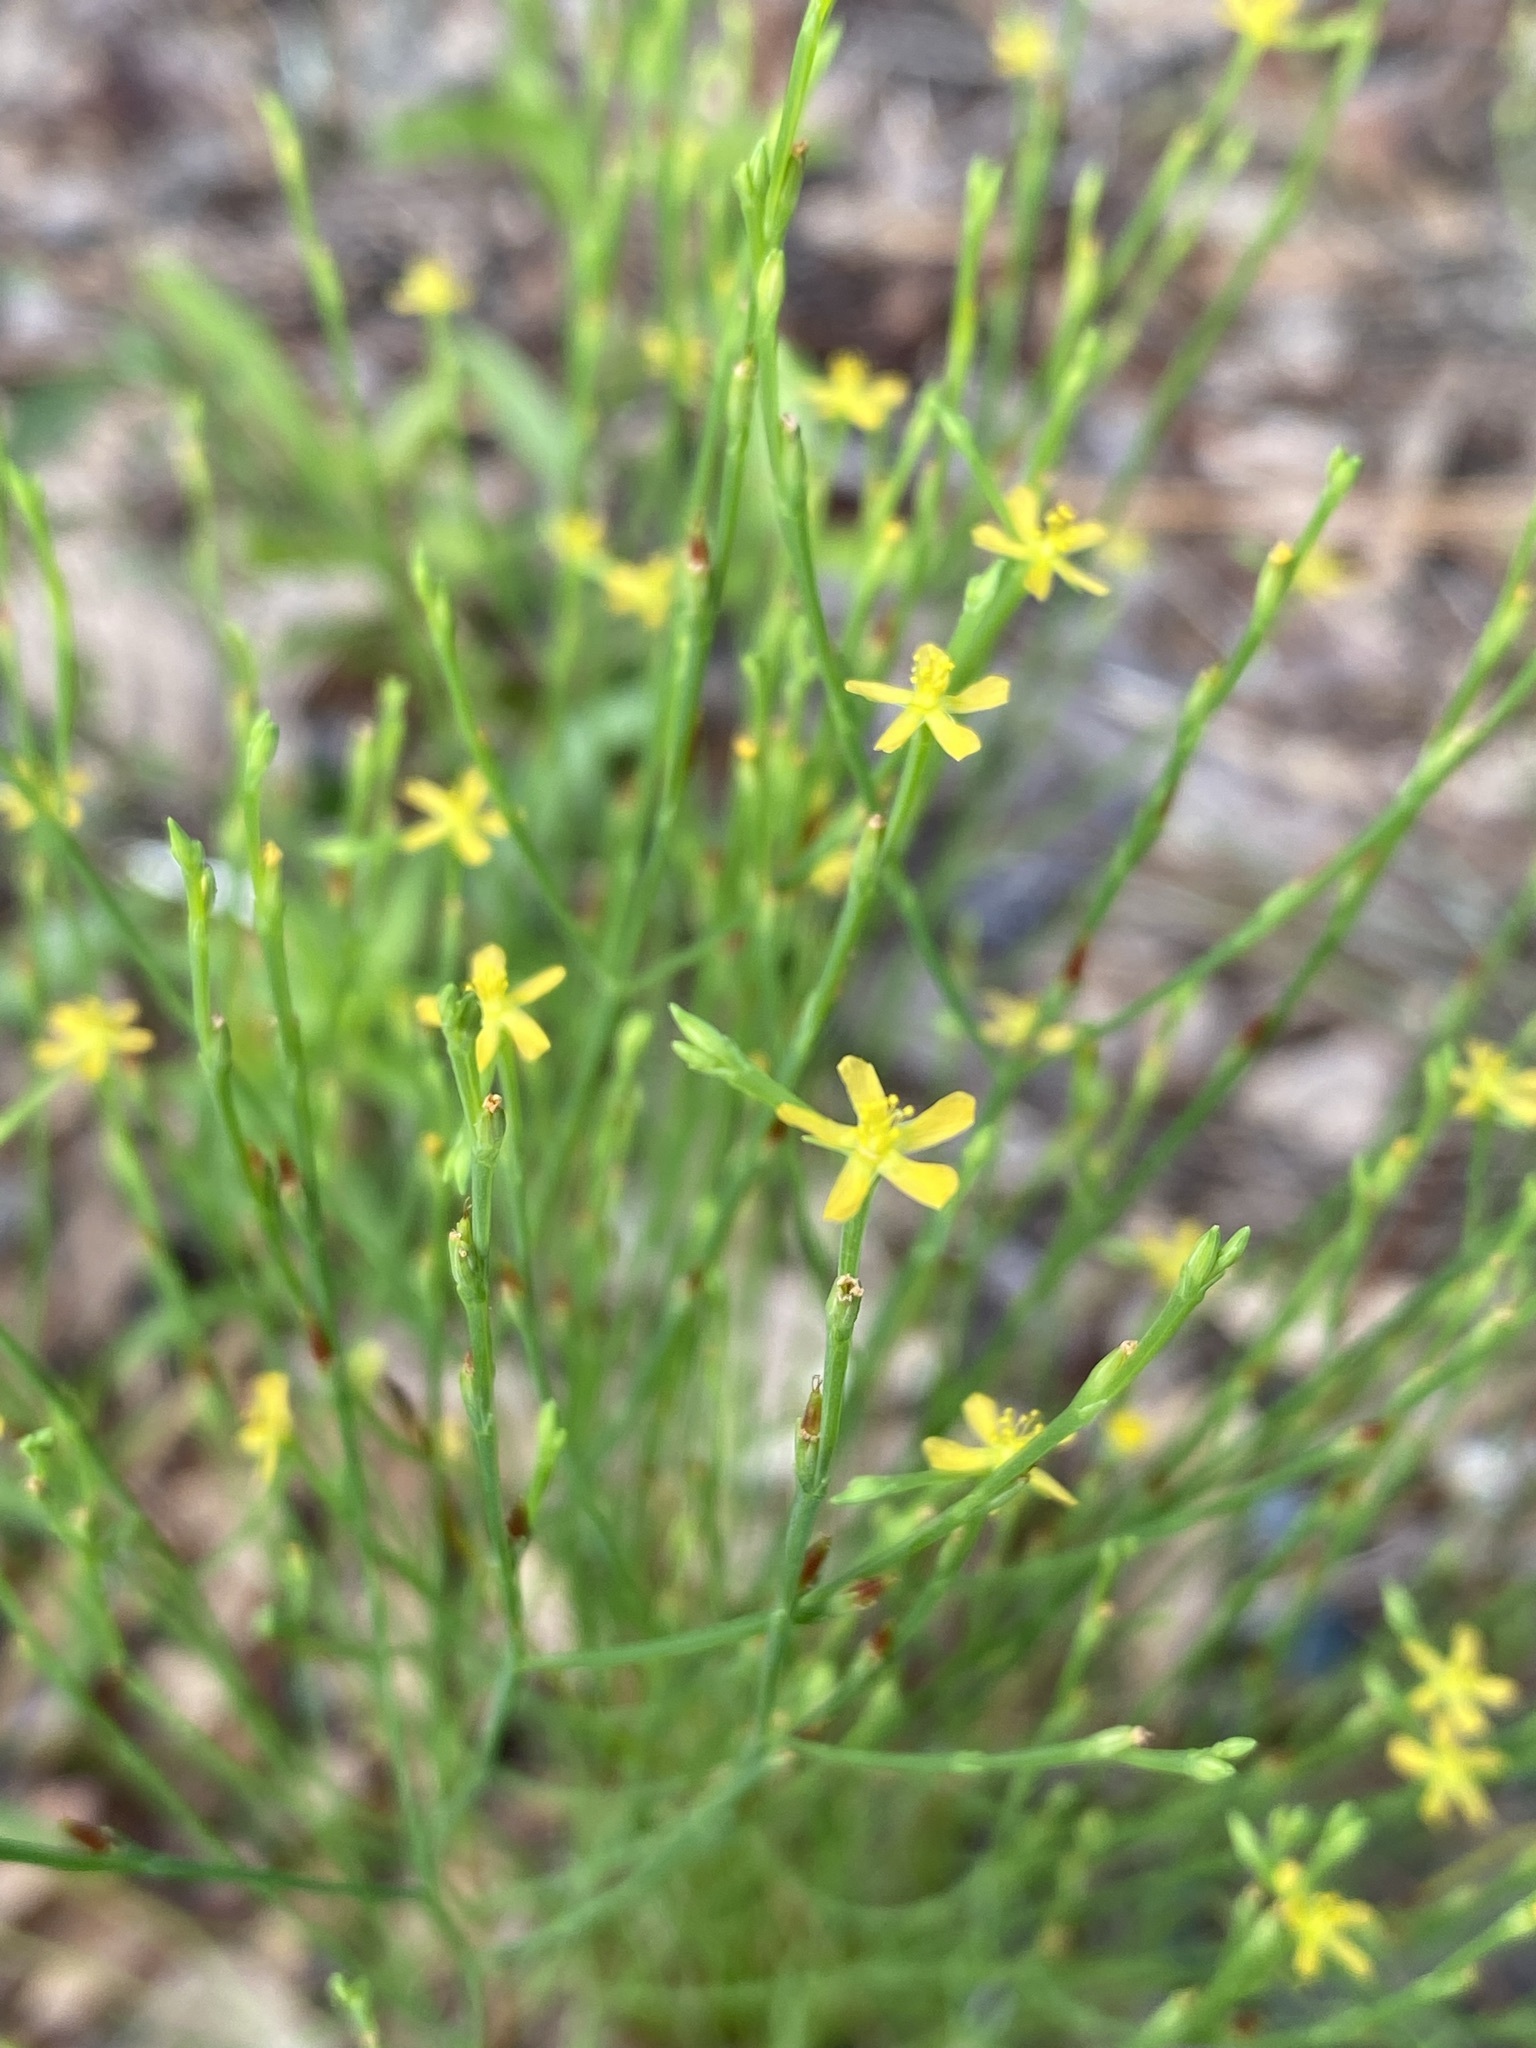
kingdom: Plantae
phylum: Tracheophyta
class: Magnoliopsida
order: Malpighiales
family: Hypericaceae
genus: Hypericum
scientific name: Hypericum gentianoides
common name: Gentian-leaved st. john's-wort
